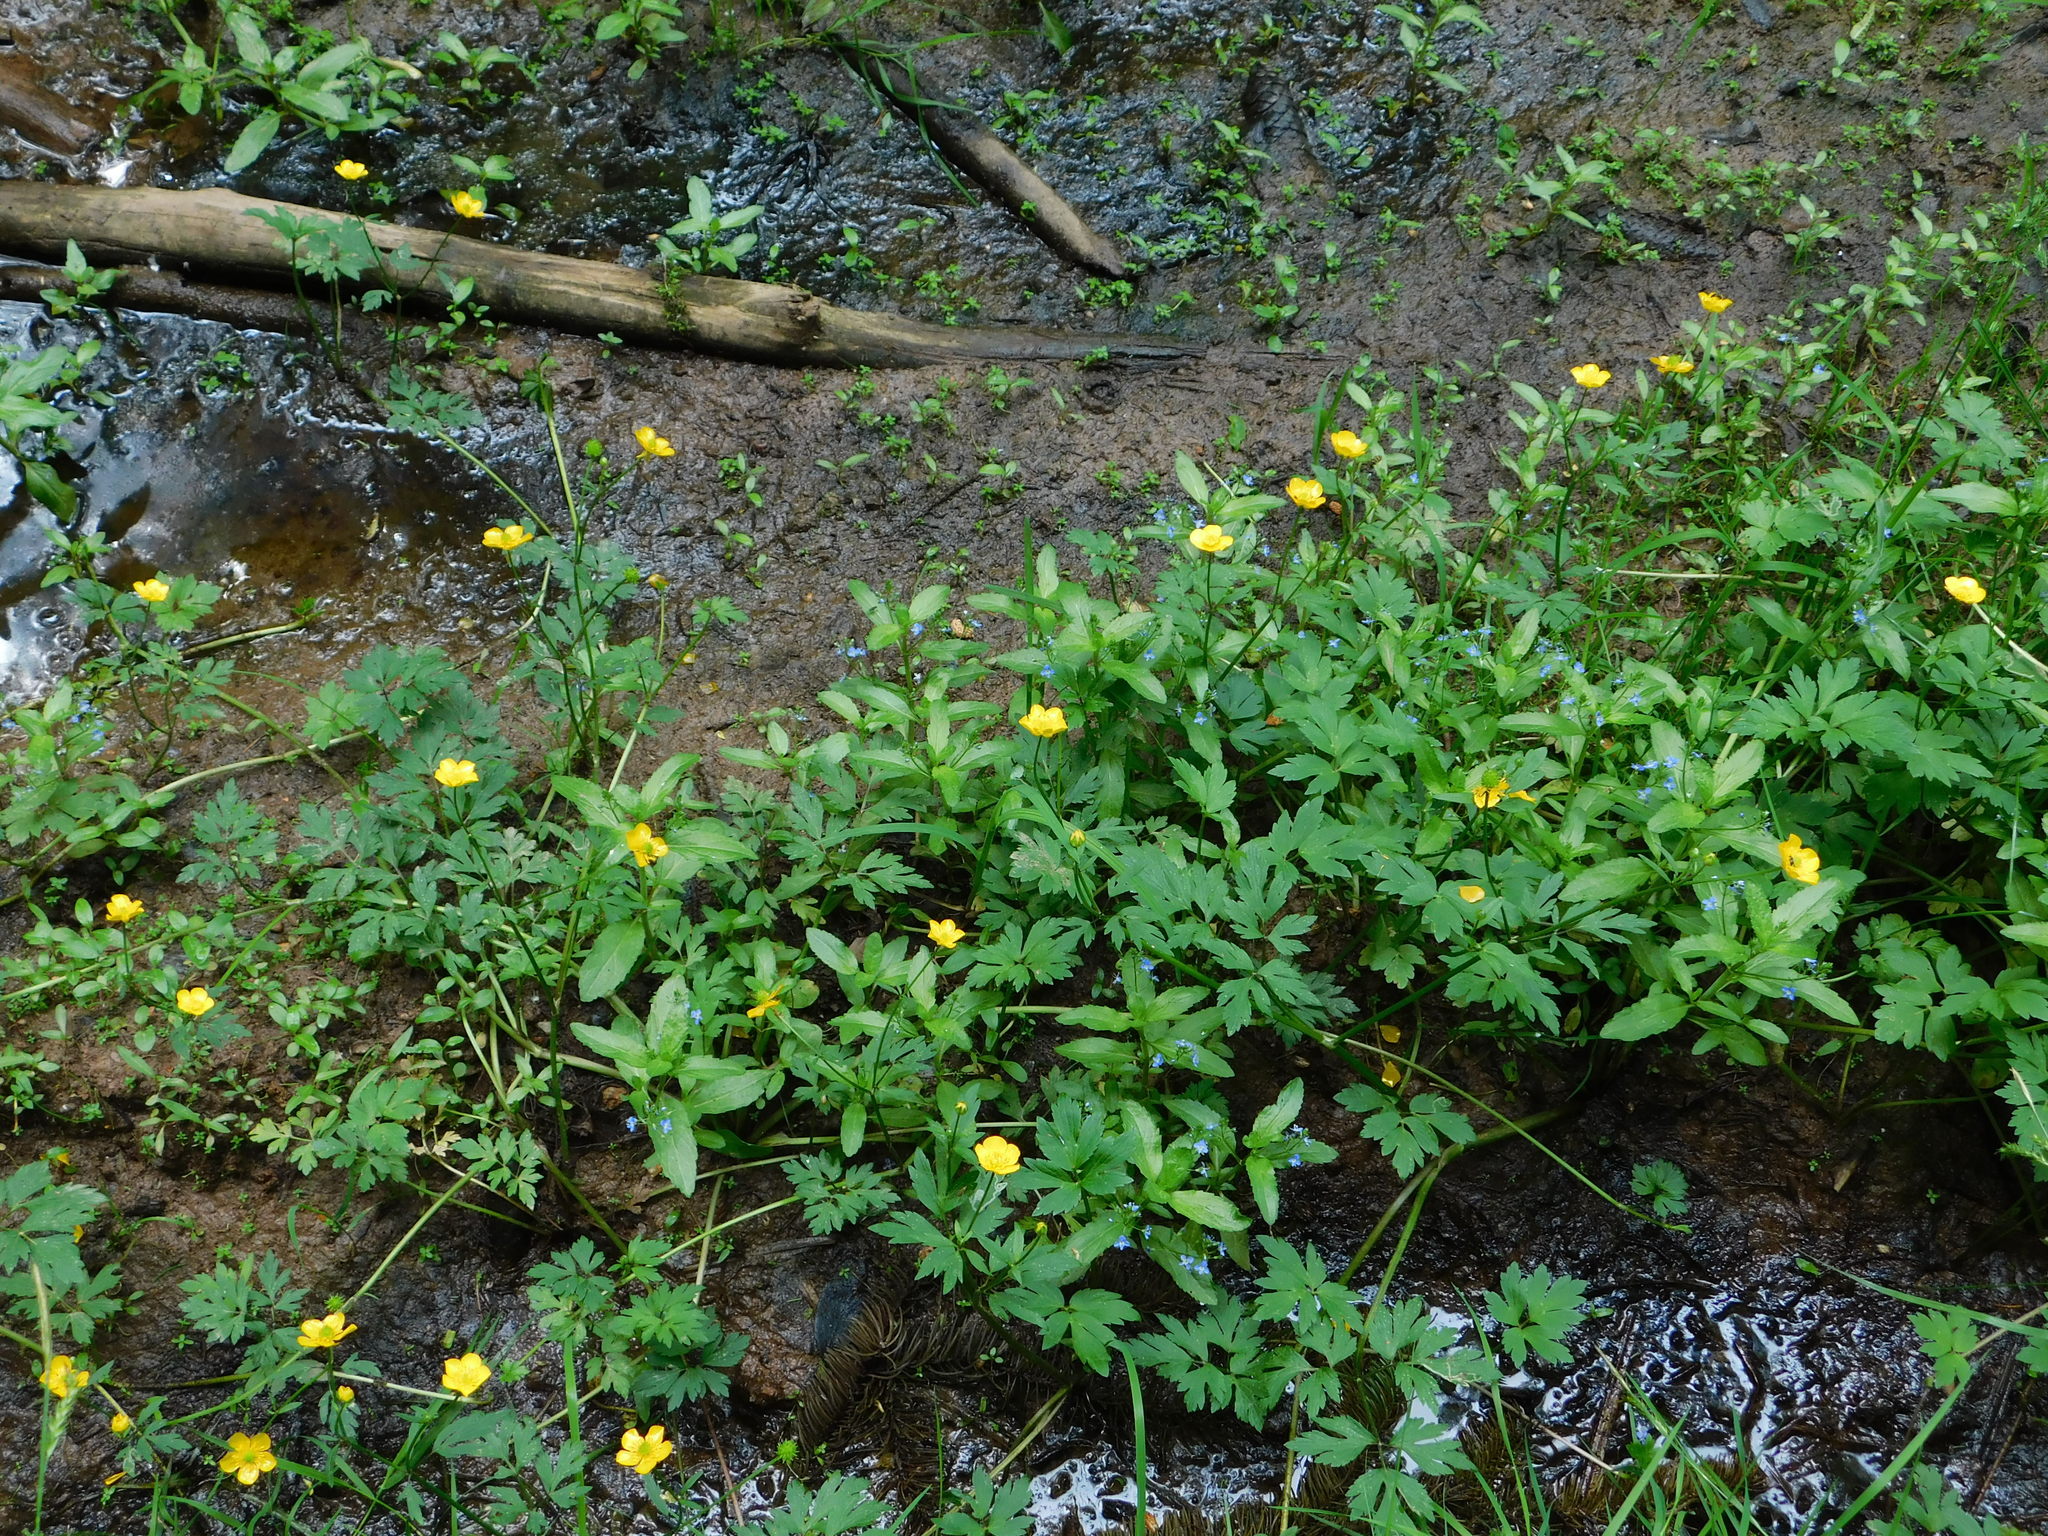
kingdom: Plantae
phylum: Tracheophyta
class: Magnoliopsida
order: Ranunculales
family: Ranunculaceae
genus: Ranunculus
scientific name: Ranunculus repens
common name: Creeping buttercup
